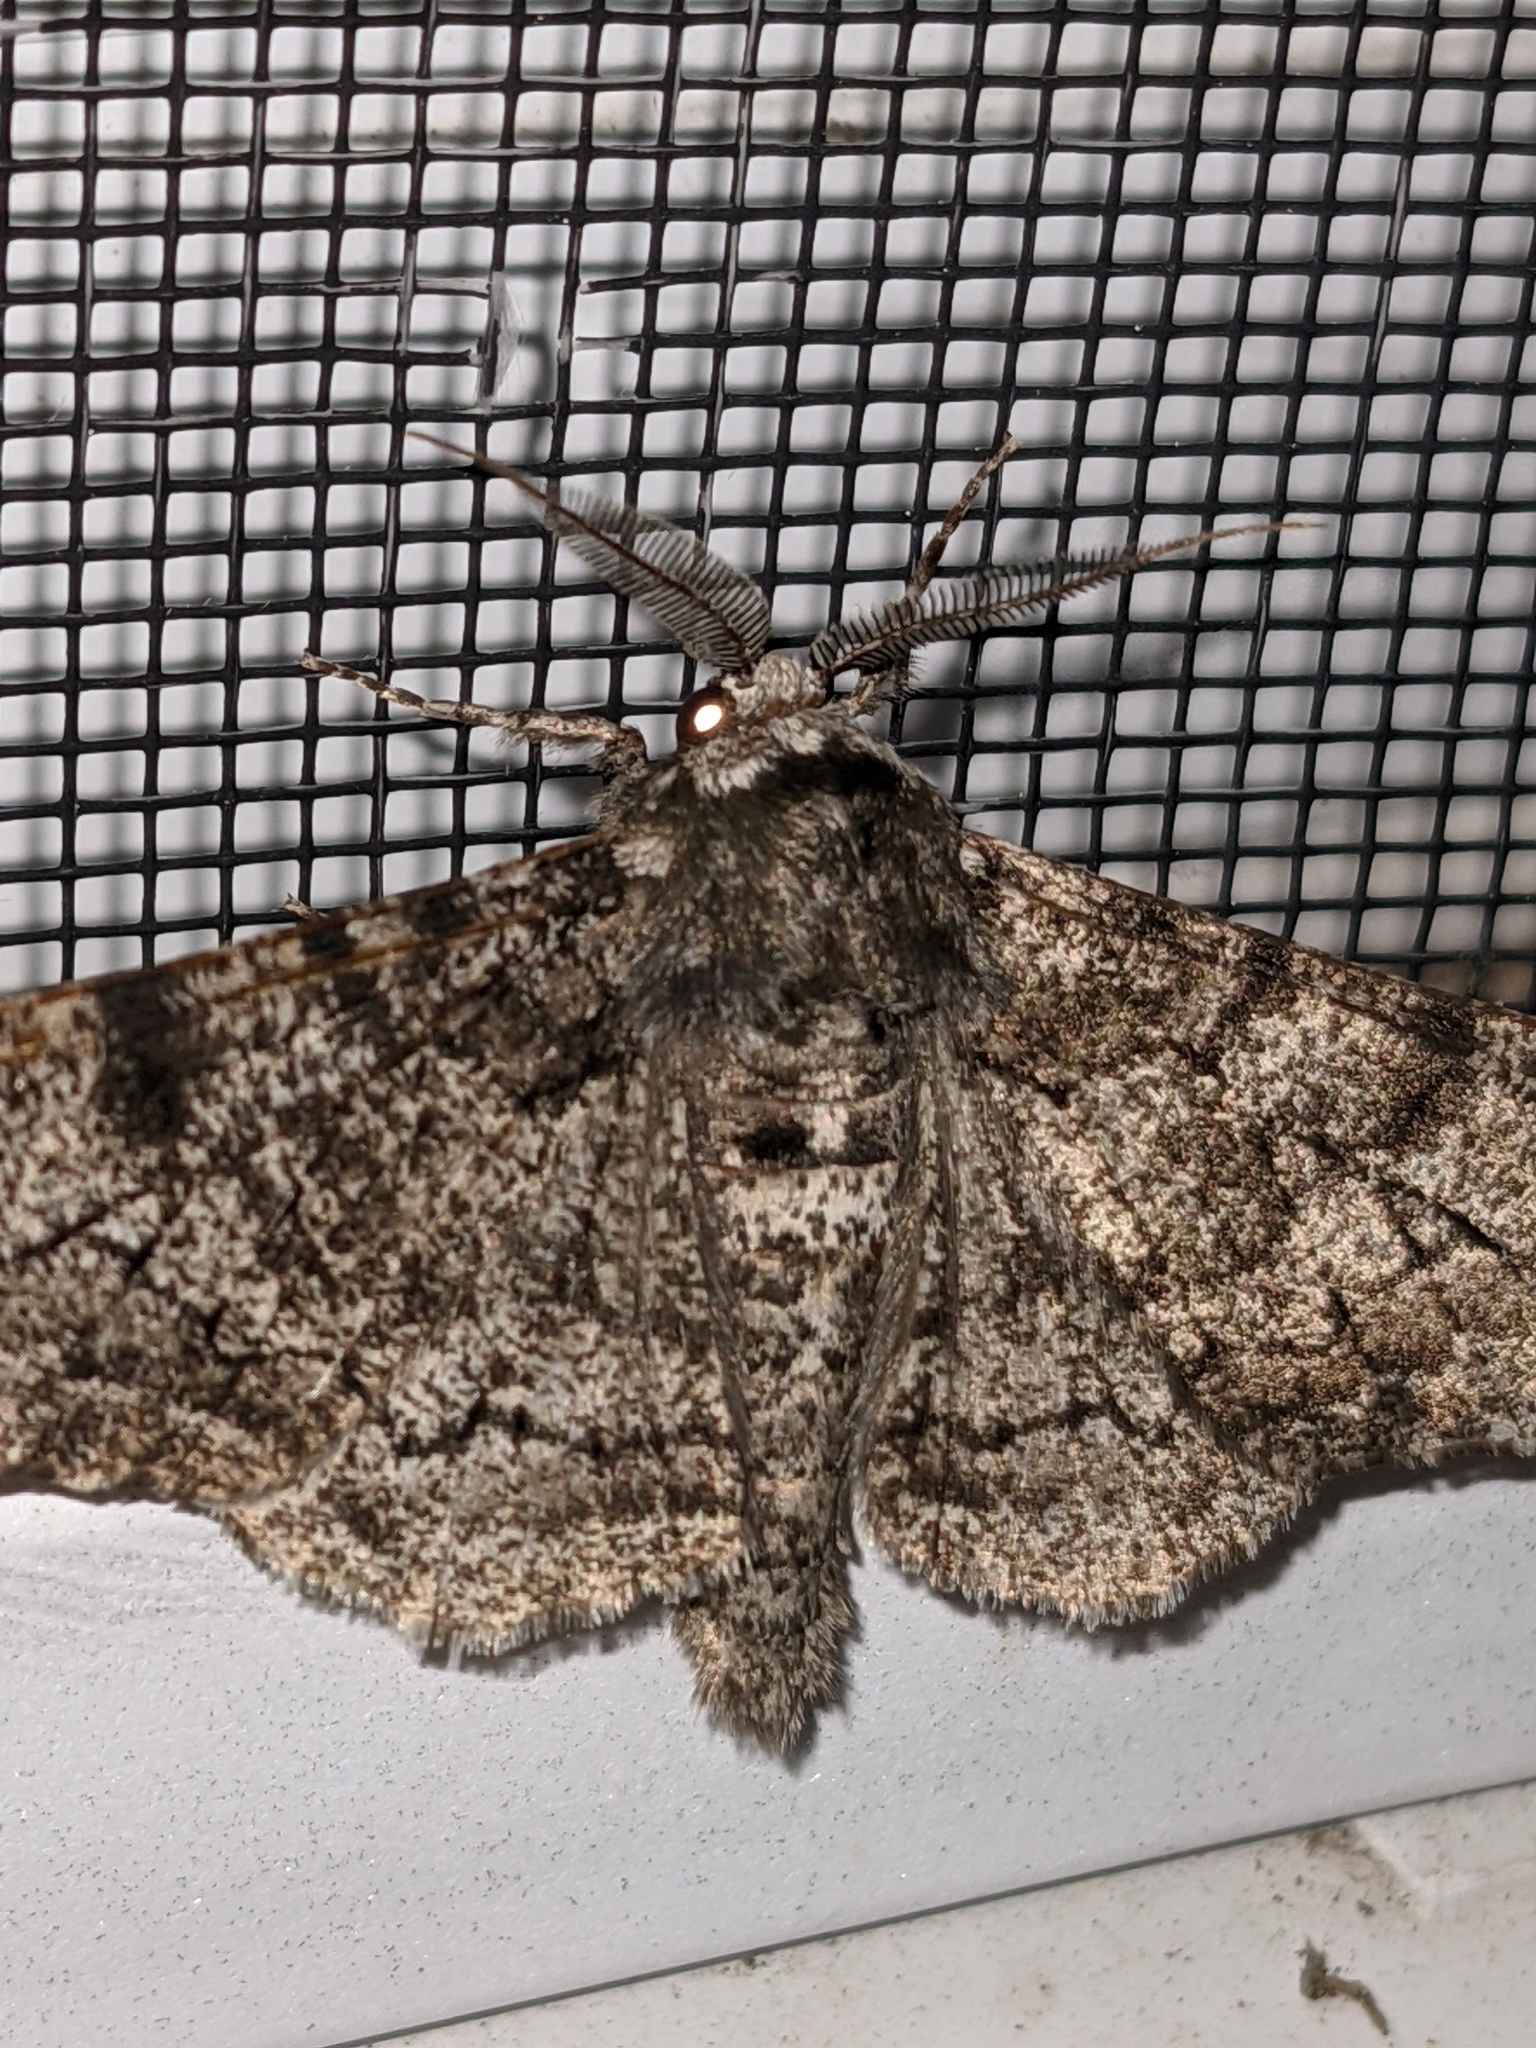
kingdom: Animalia
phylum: Arthropoda
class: Insecta
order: Lepidoptera
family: Geometridae
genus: Biston
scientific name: Biston betularia
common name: Peppered moth
